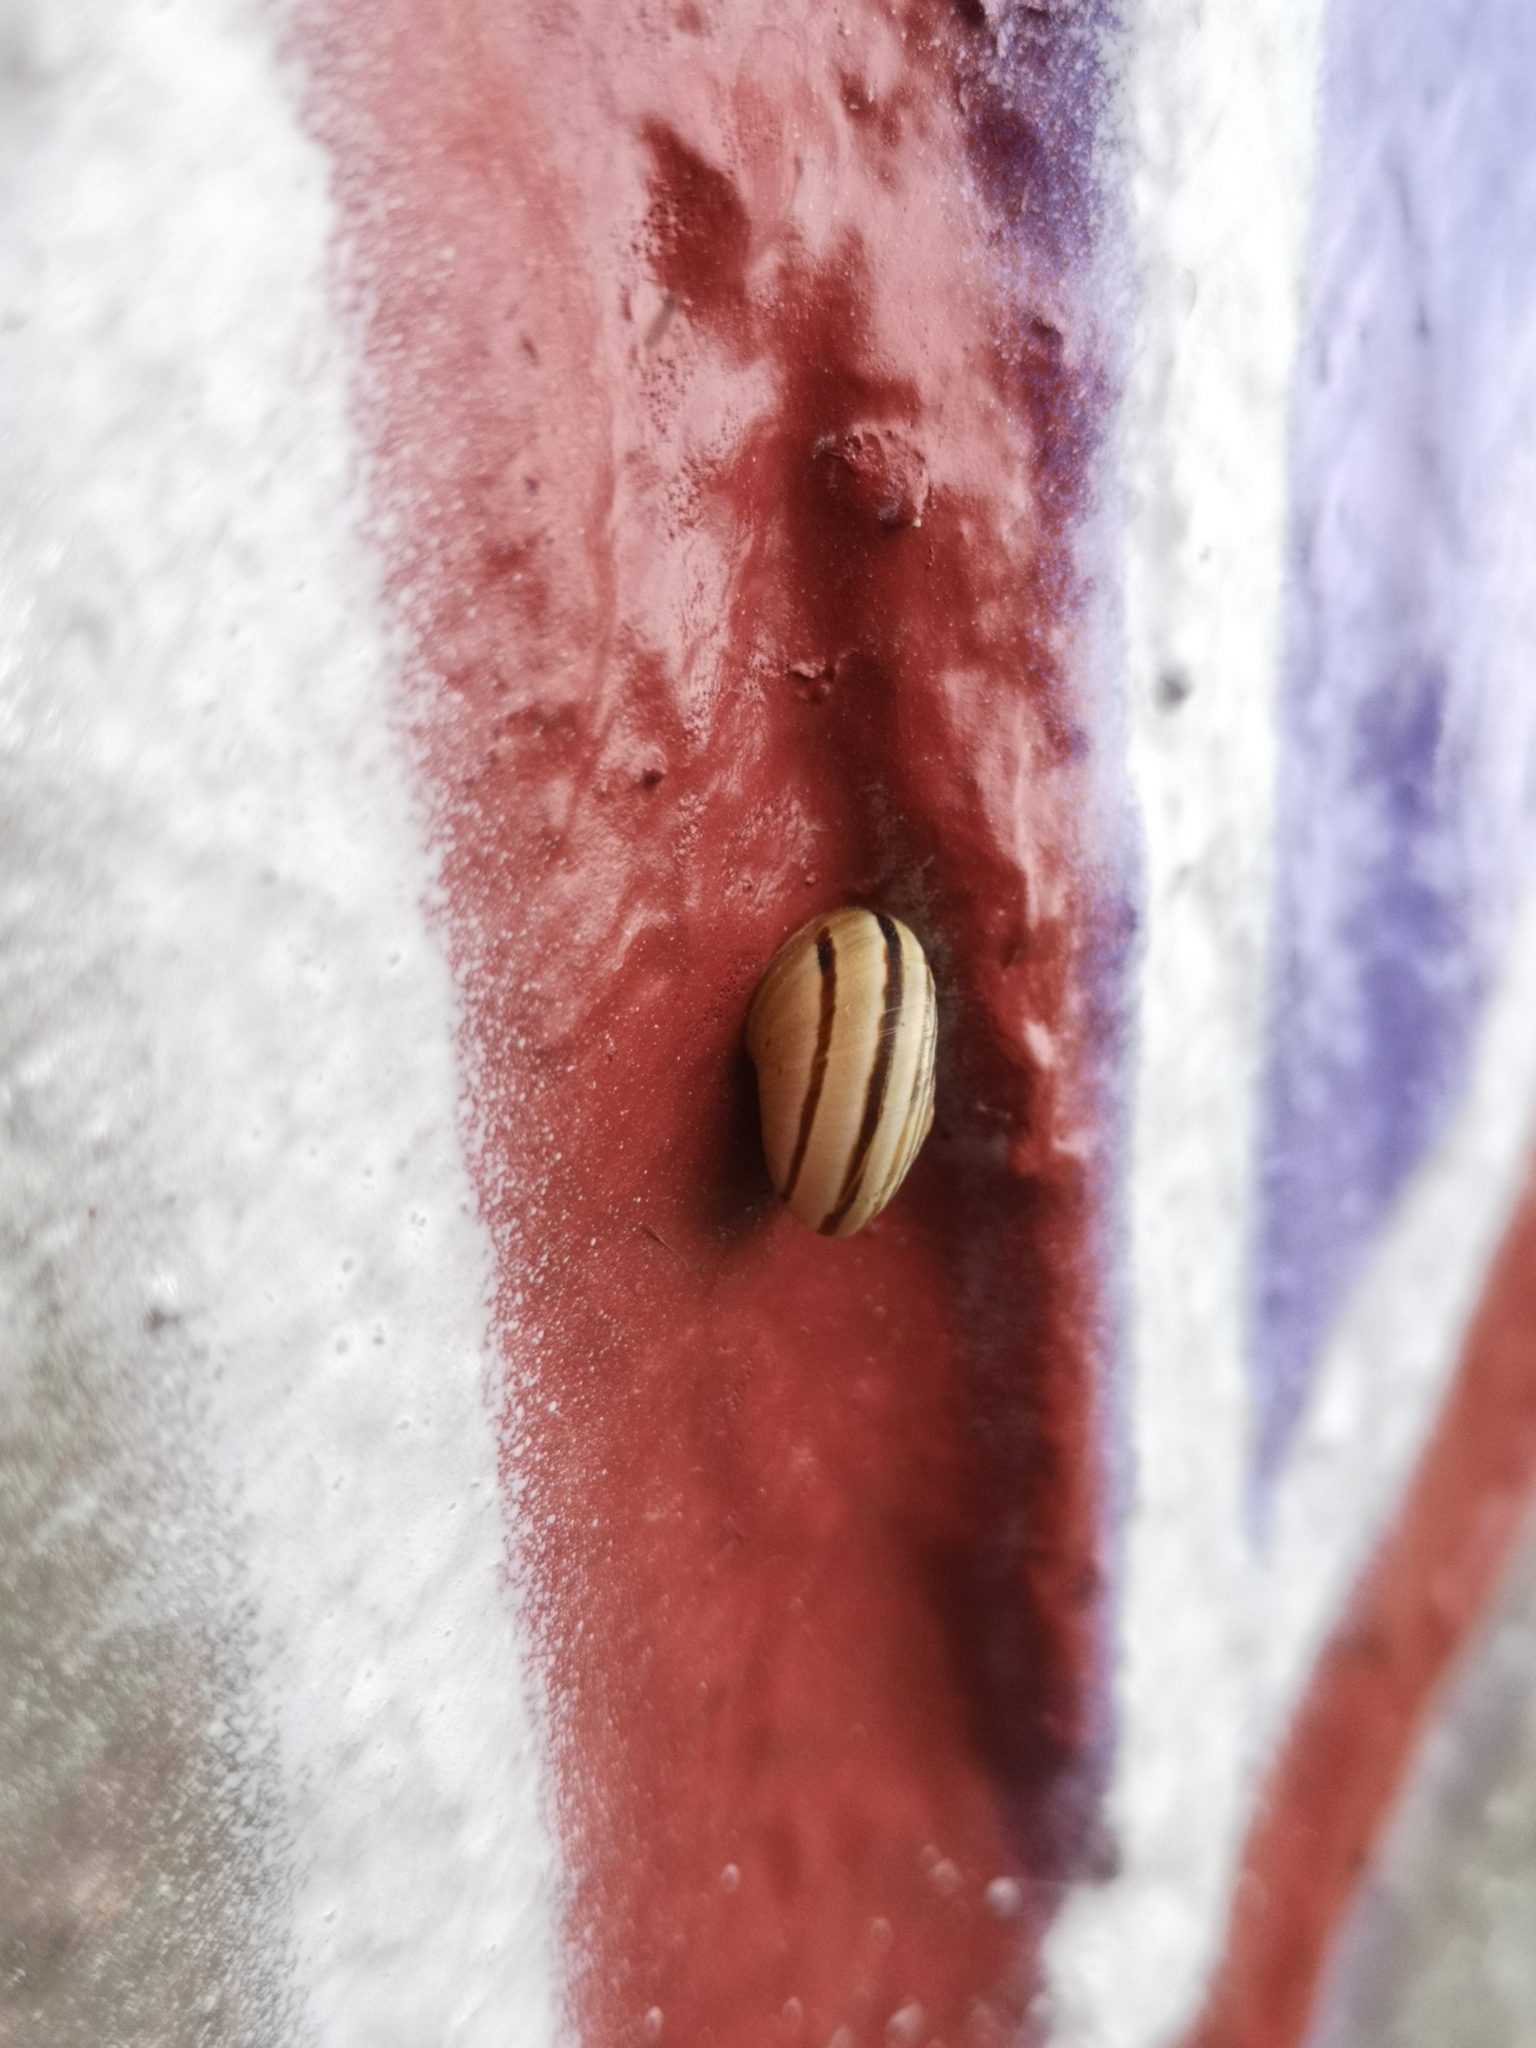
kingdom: Animalia
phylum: Mollusca
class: Gastropoda
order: Stylommatophora
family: Helicidae
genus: Pseudotachea
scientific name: Pseudotachea splendida
